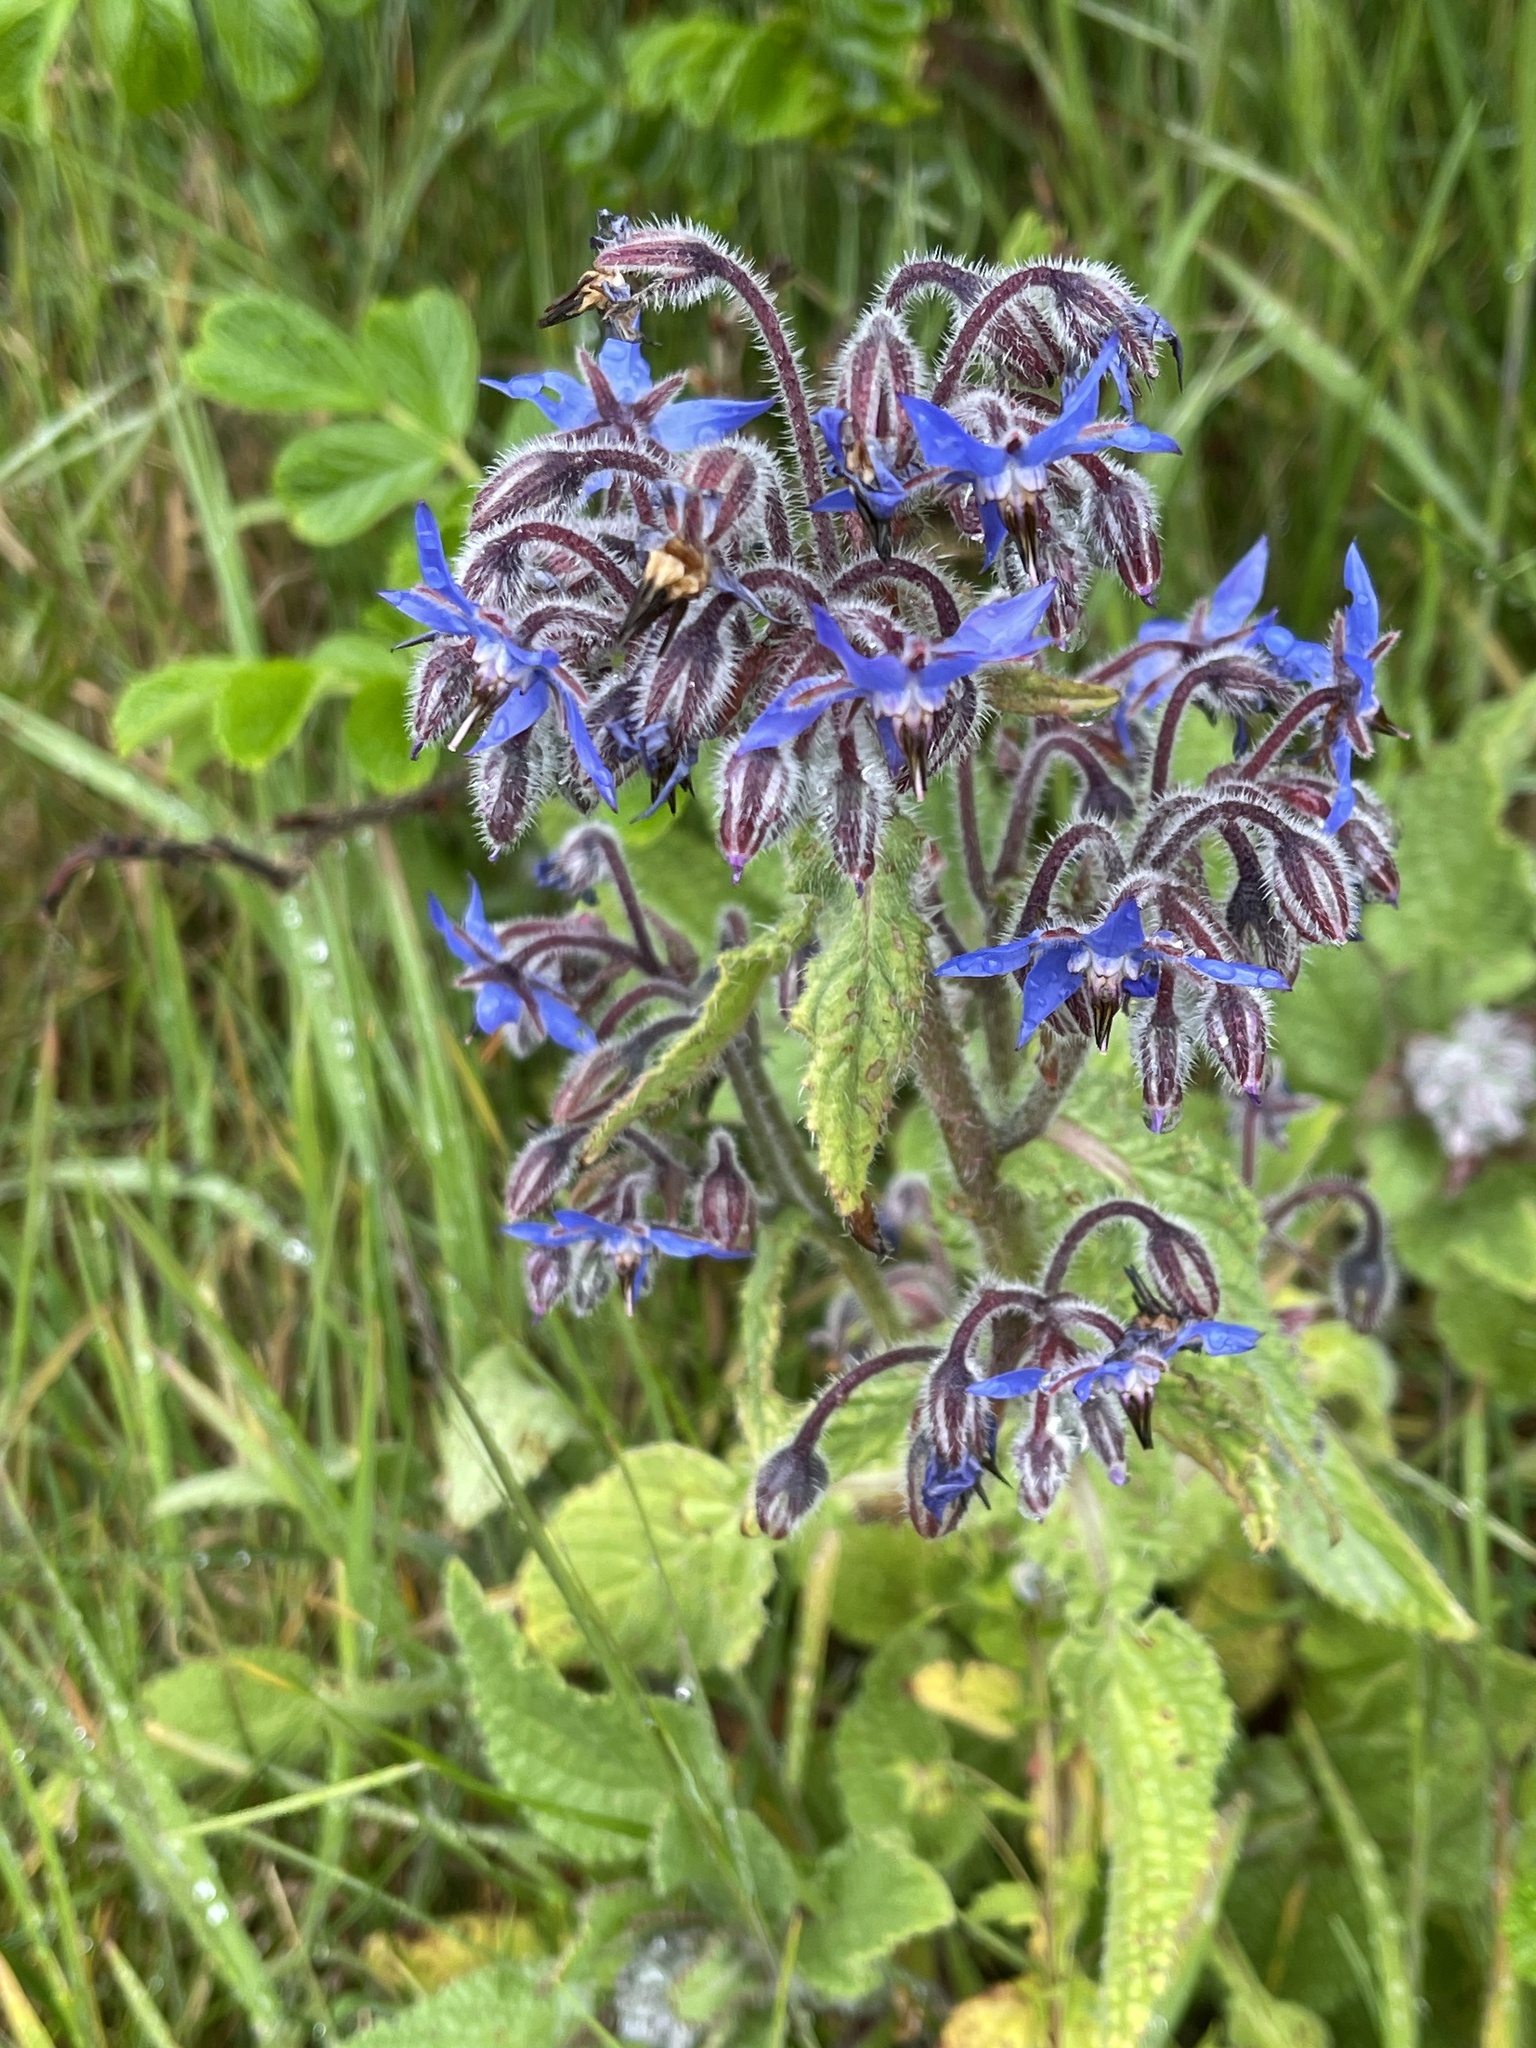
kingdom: Plantae
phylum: Tracheophyta
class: Magnoliopsida
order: Boraginales
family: Boraginaceae
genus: Borago
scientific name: Borago officinalis
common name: Borage
